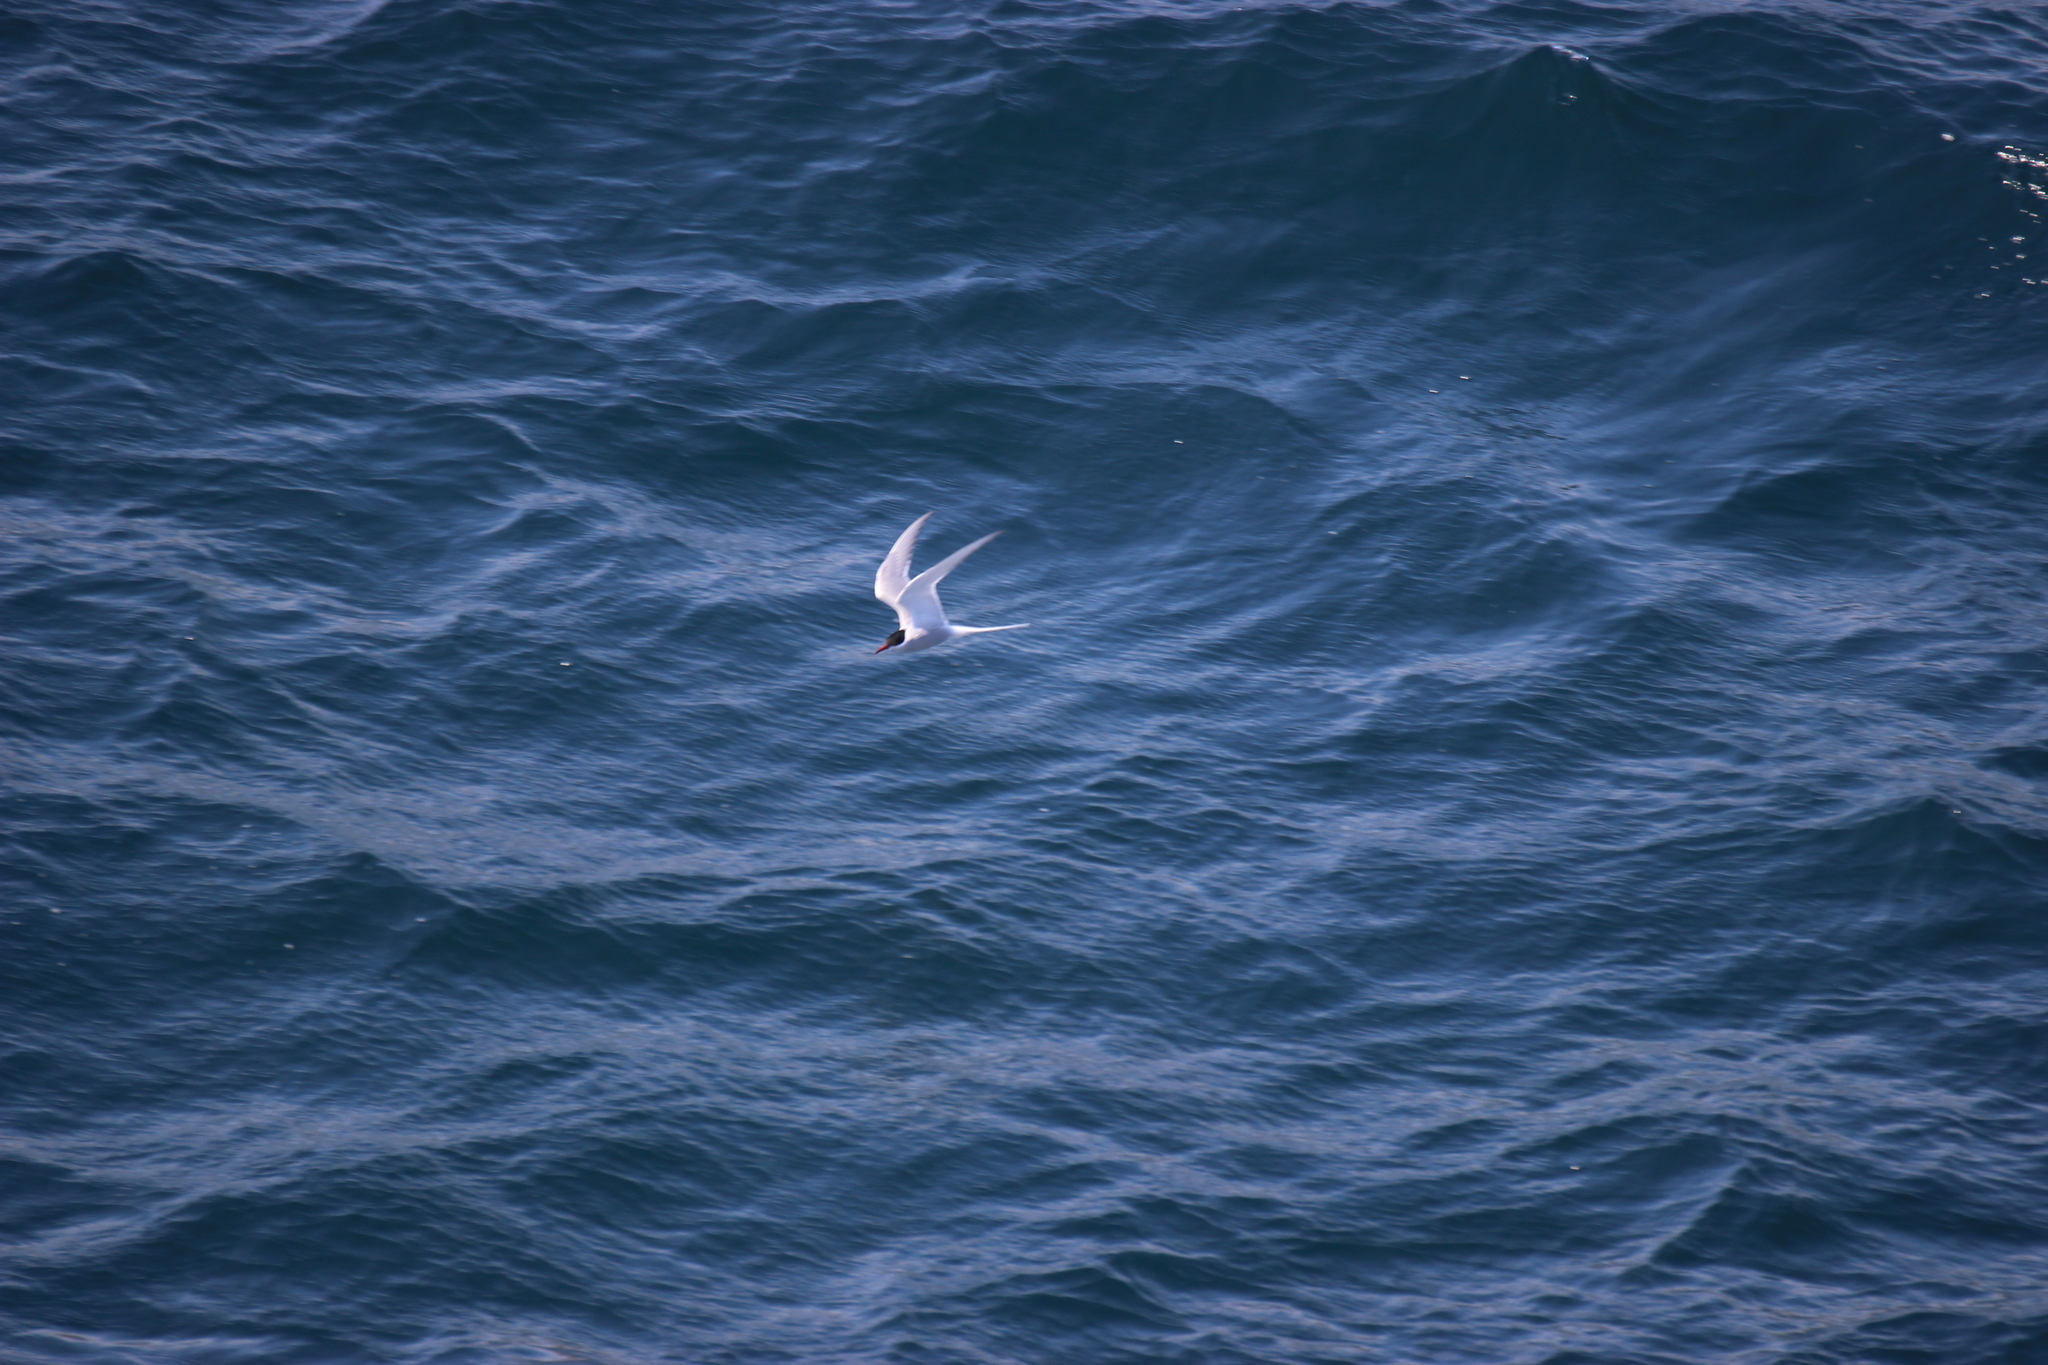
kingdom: Animalia
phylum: Chordata
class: Aves
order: Charadriiformes
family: Laridae
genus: Sterna
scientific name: Sterna paradisaea
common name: Arctic tern
